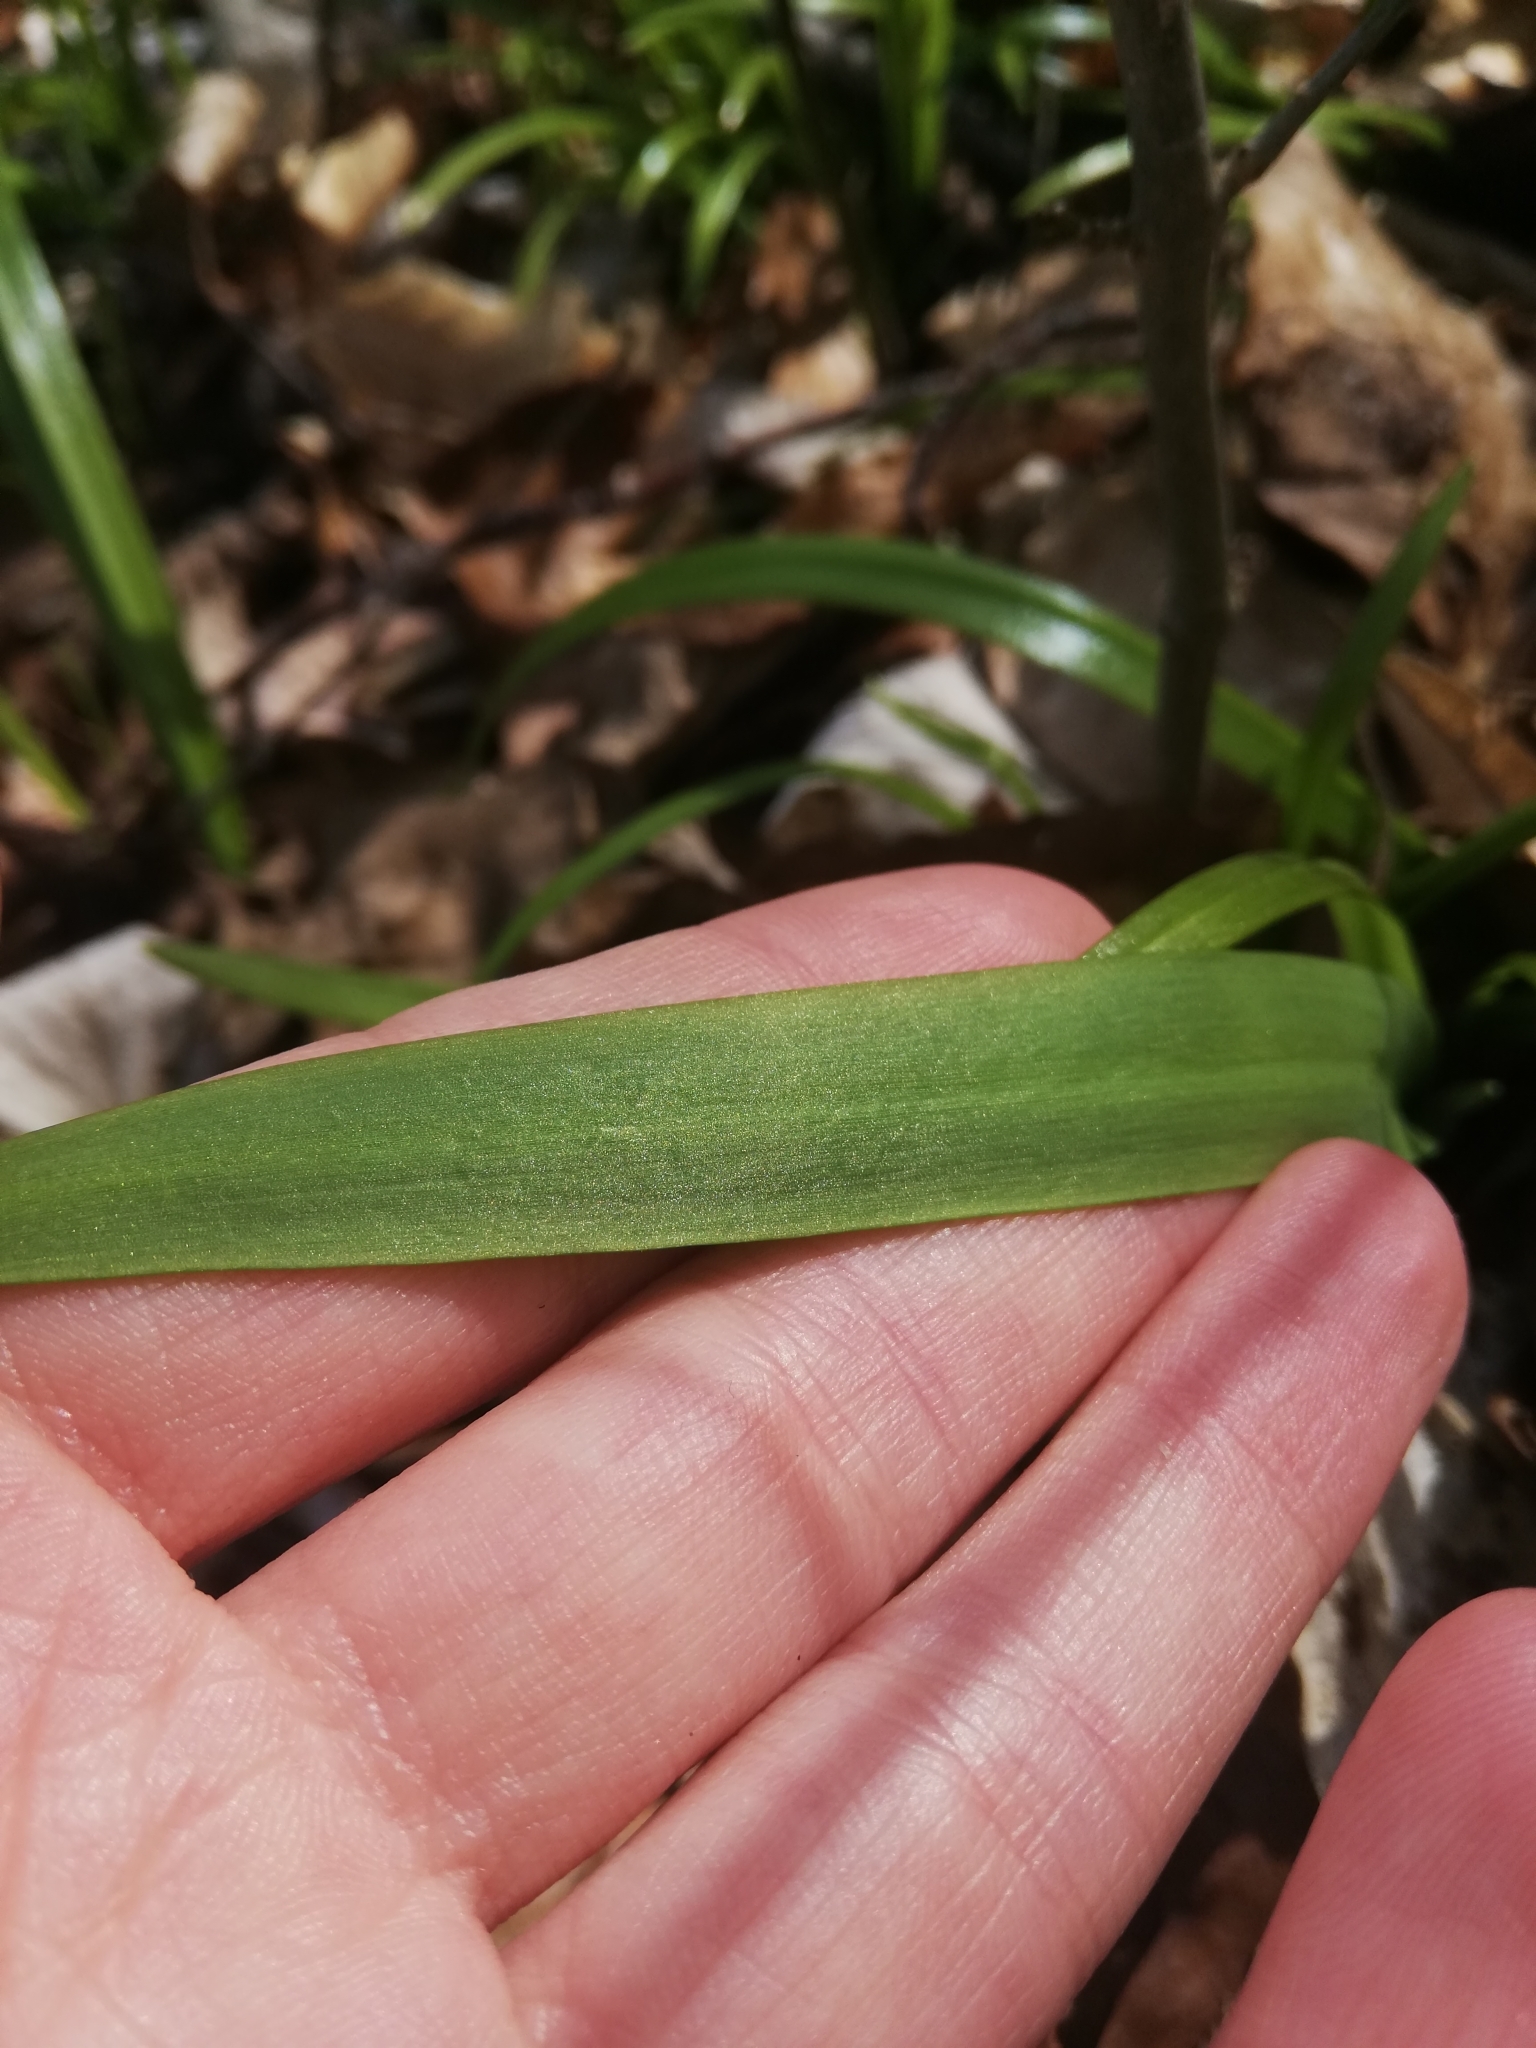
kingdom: Plantae
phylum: Tracheophyta
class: Liliopsida
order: Asparagales
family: Amaryllidaceae
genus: Allium
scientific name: Allium paradoxum
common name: Few-flowered garlic
